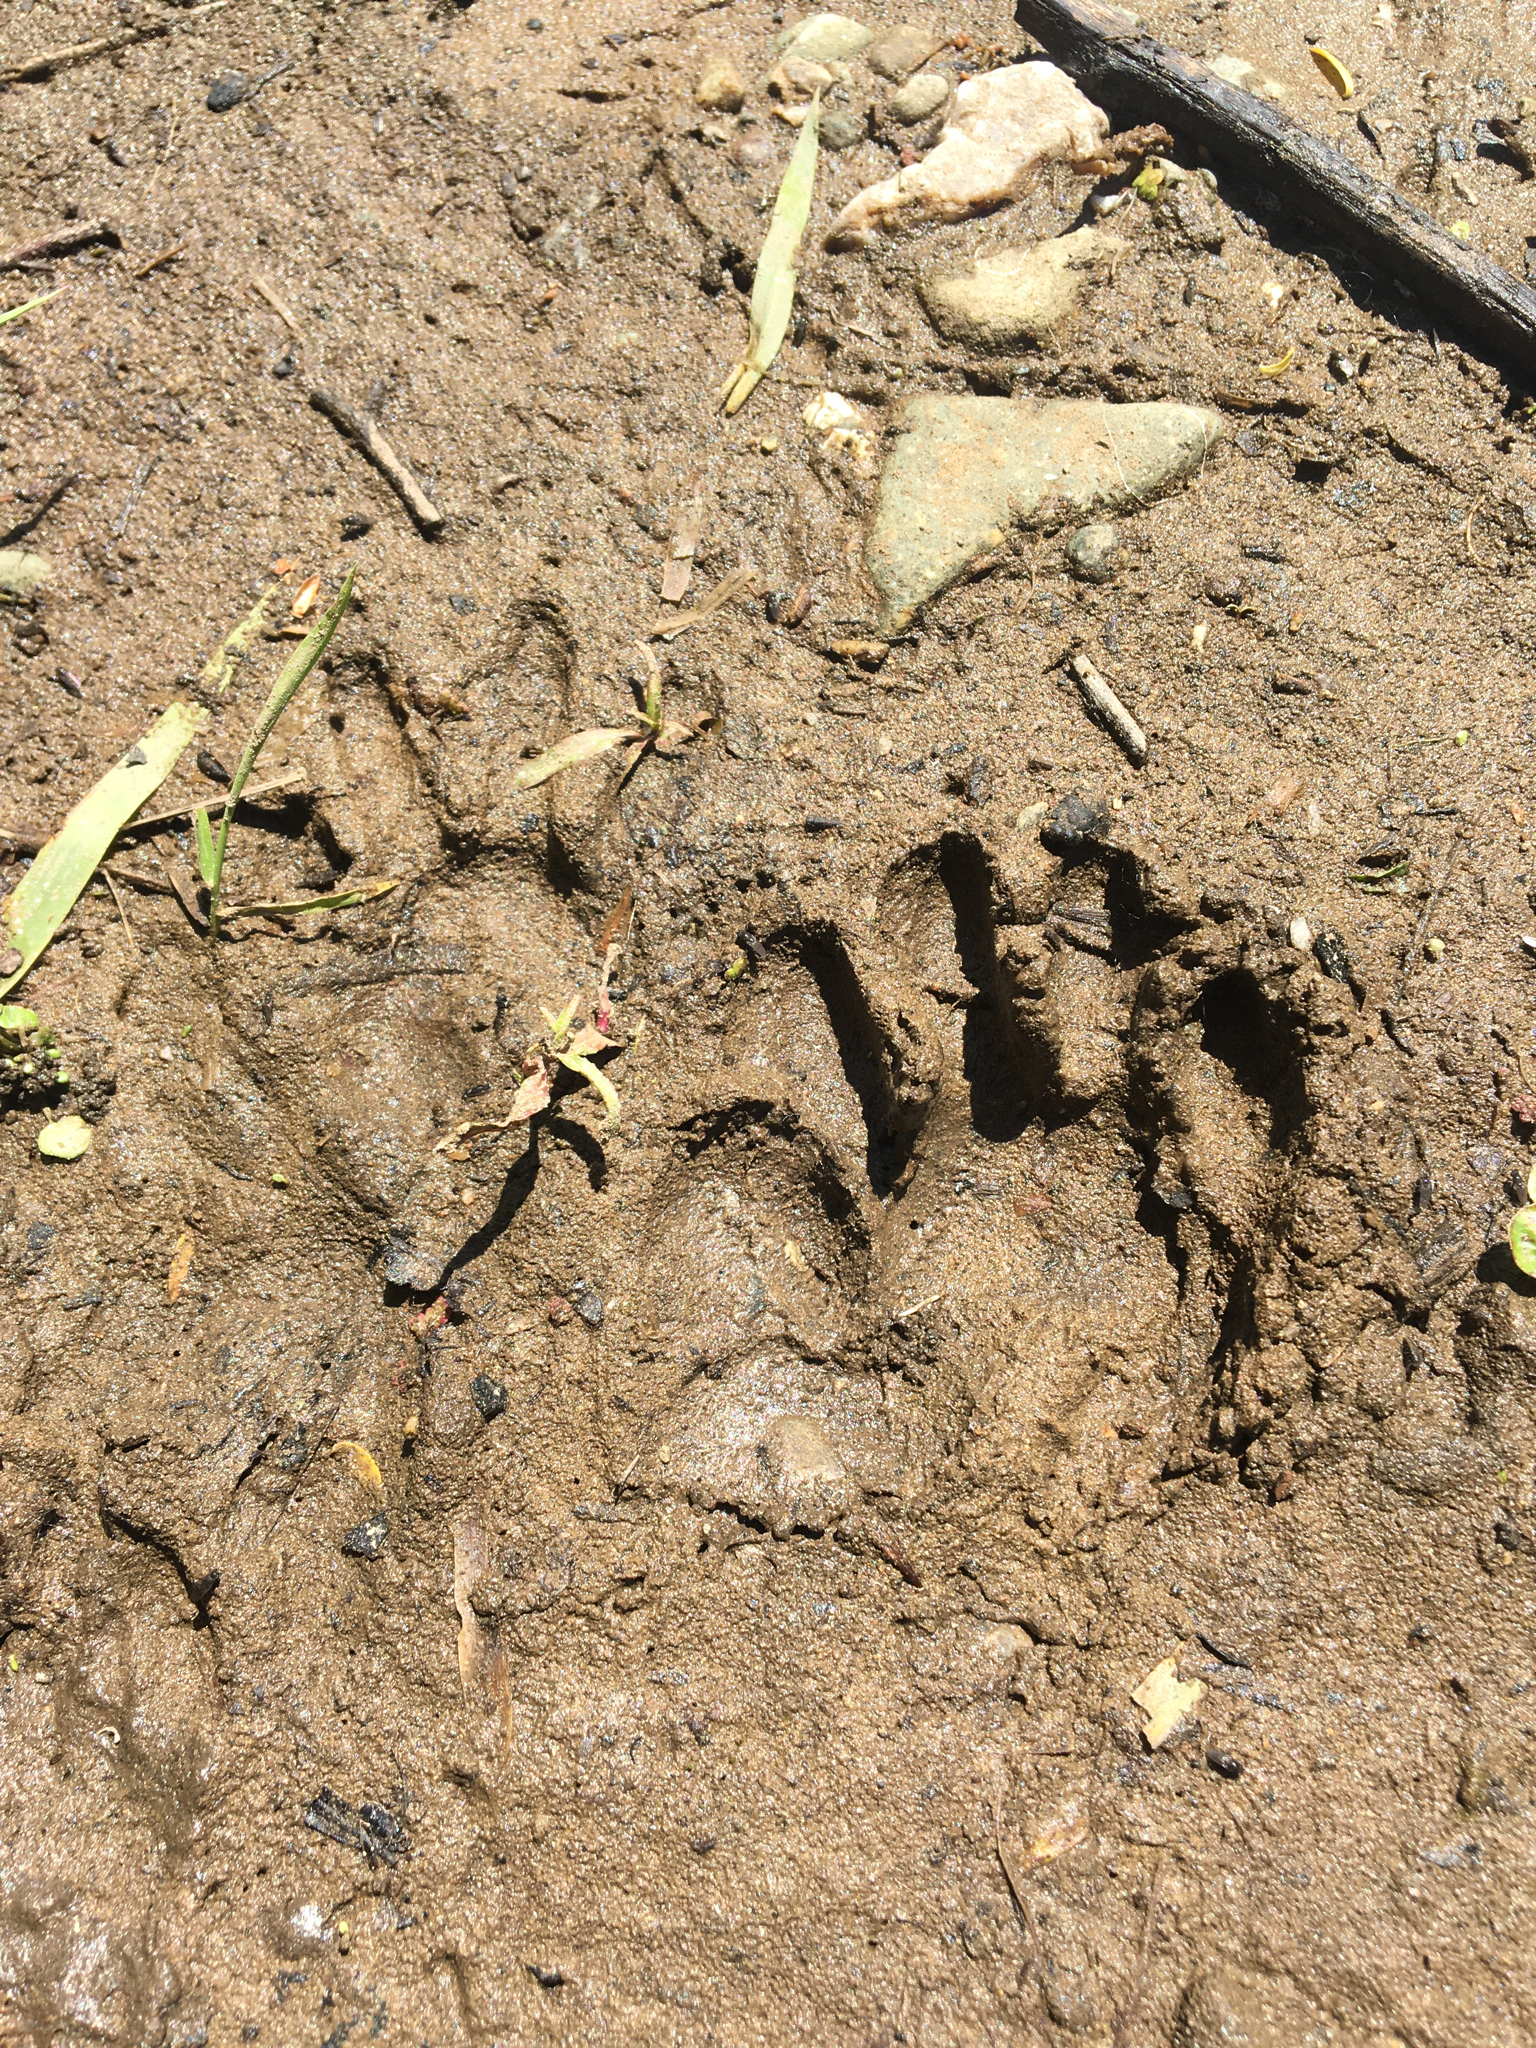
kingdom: Animalia
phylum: Chordata
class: Mammalia
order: Carnivora
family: Procyonidae
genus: Procyon
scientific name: Procyon lotor
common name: Raccoon
